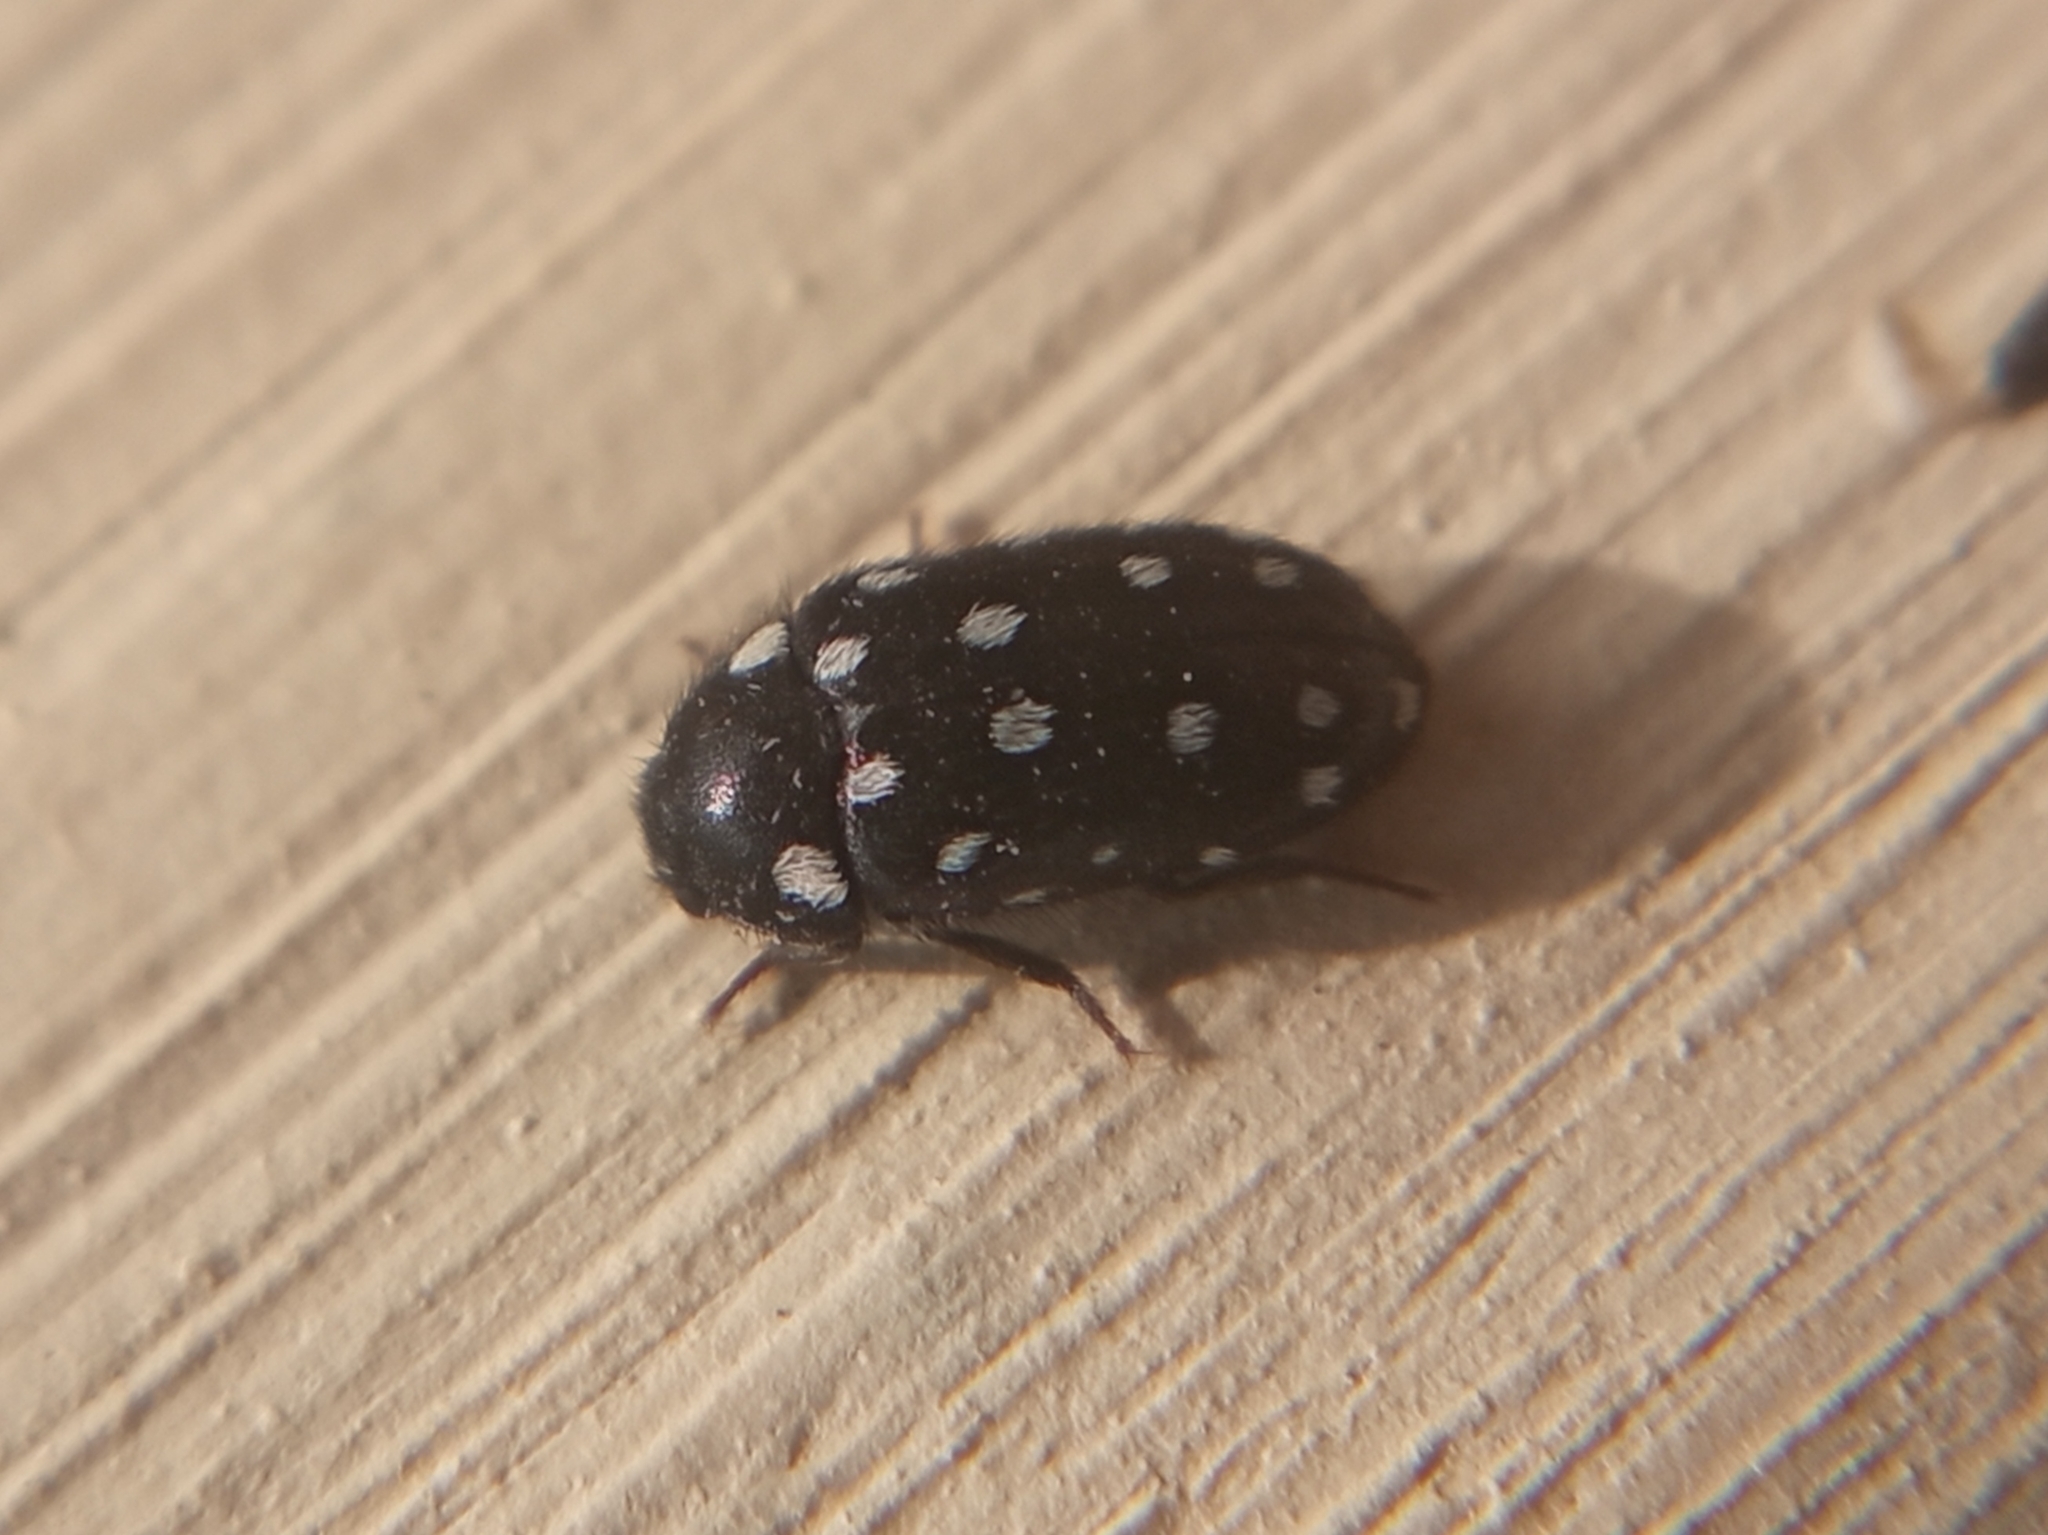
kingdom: Animalia
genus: Paranovelsis
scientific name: Paranovelsis
